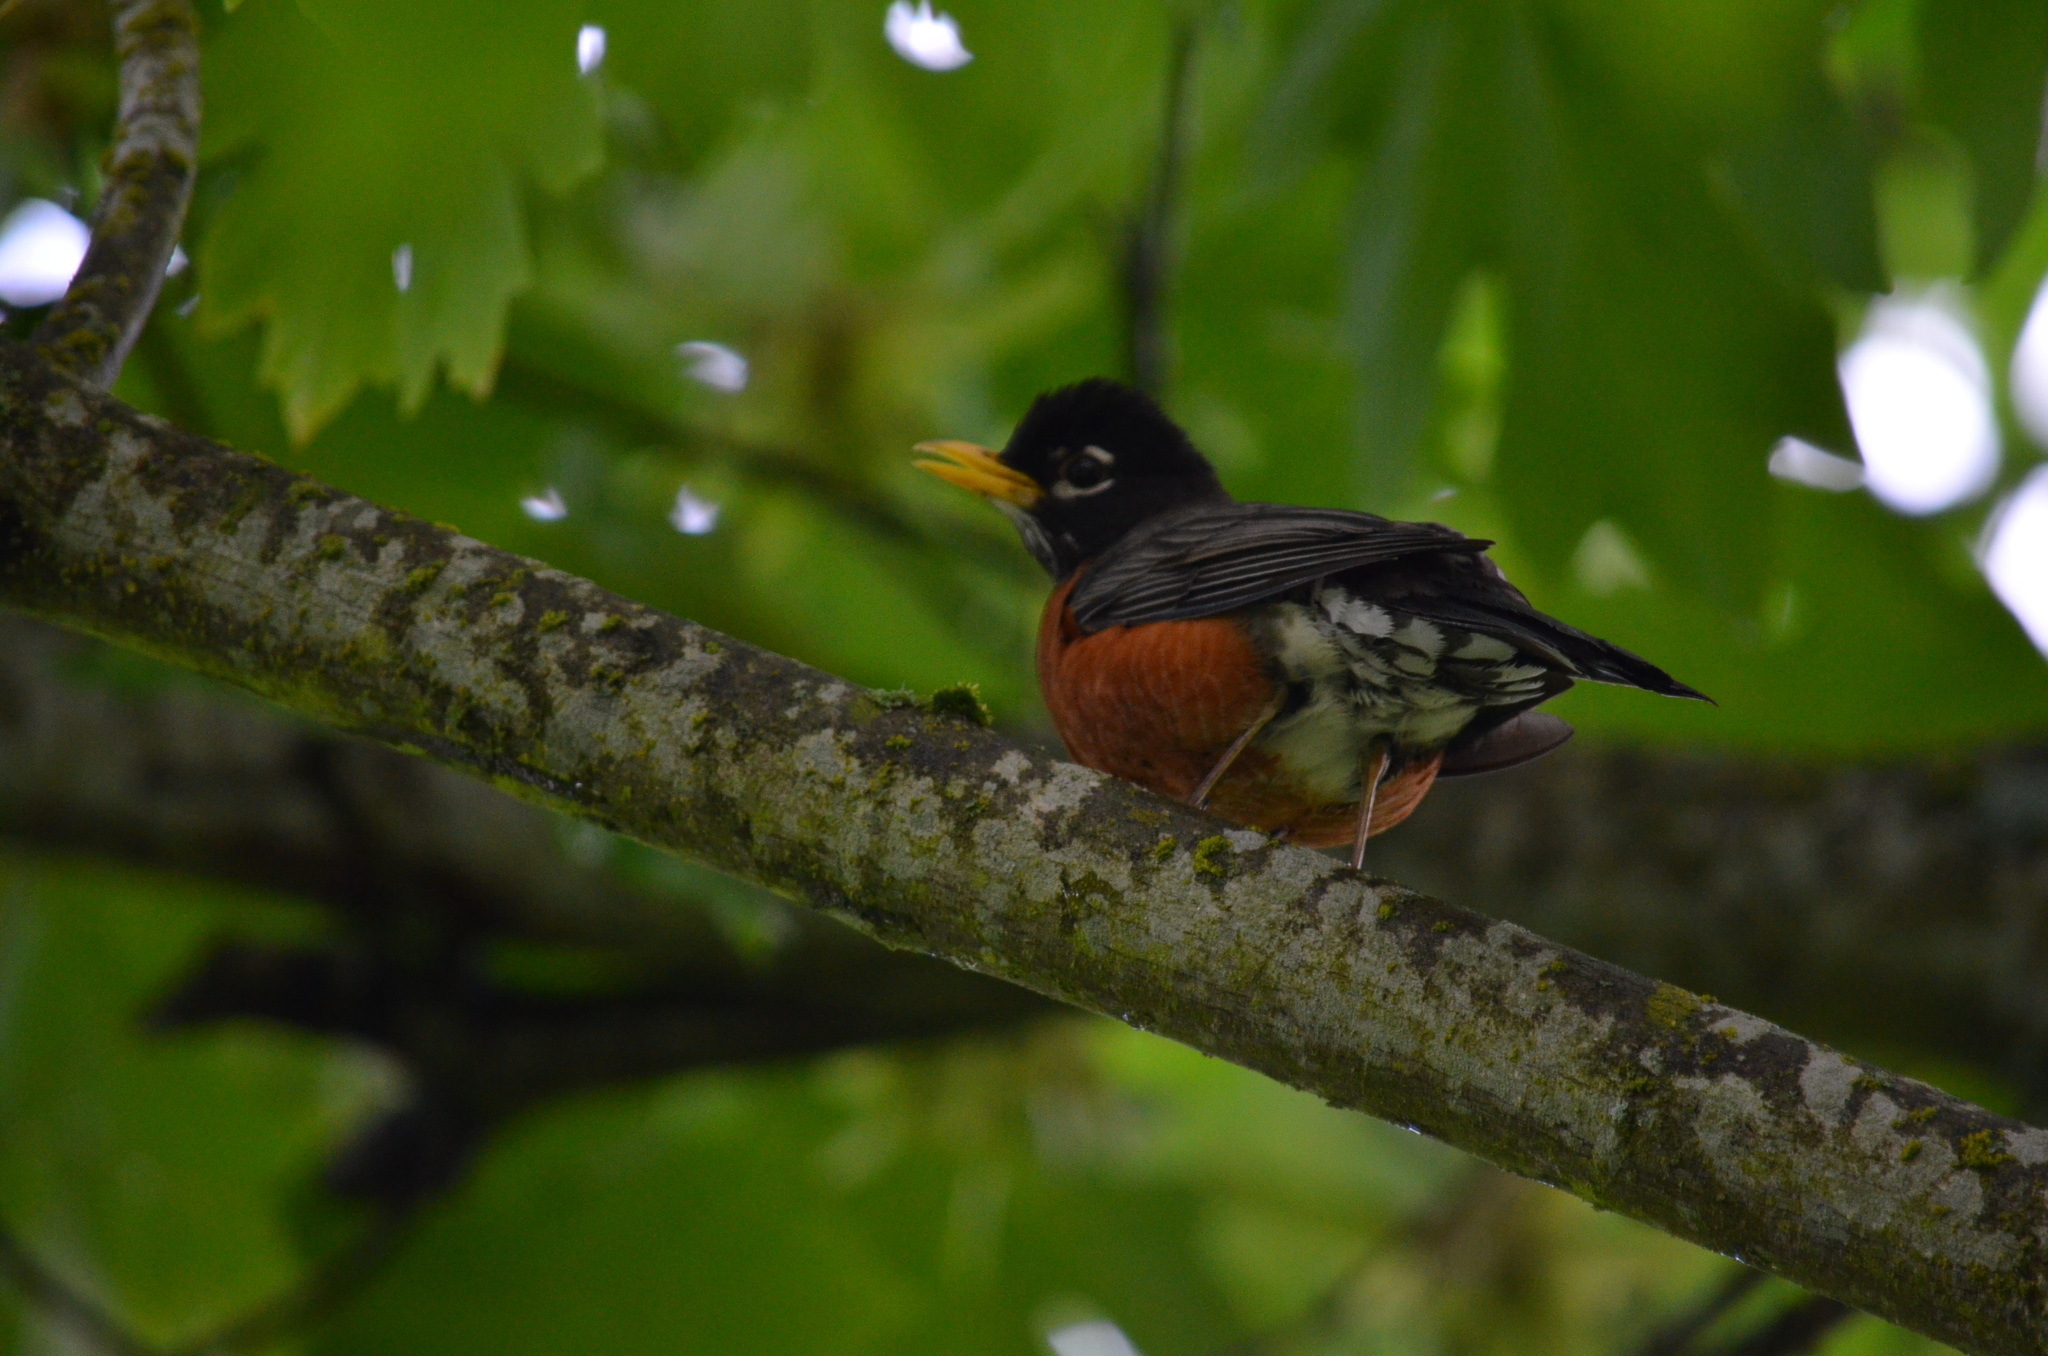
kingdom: Animalia
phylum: Chordata
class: Aves
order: Passeriformes
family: Turdidae
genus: Turdus
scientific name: Turdus migratorius
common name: American robin
